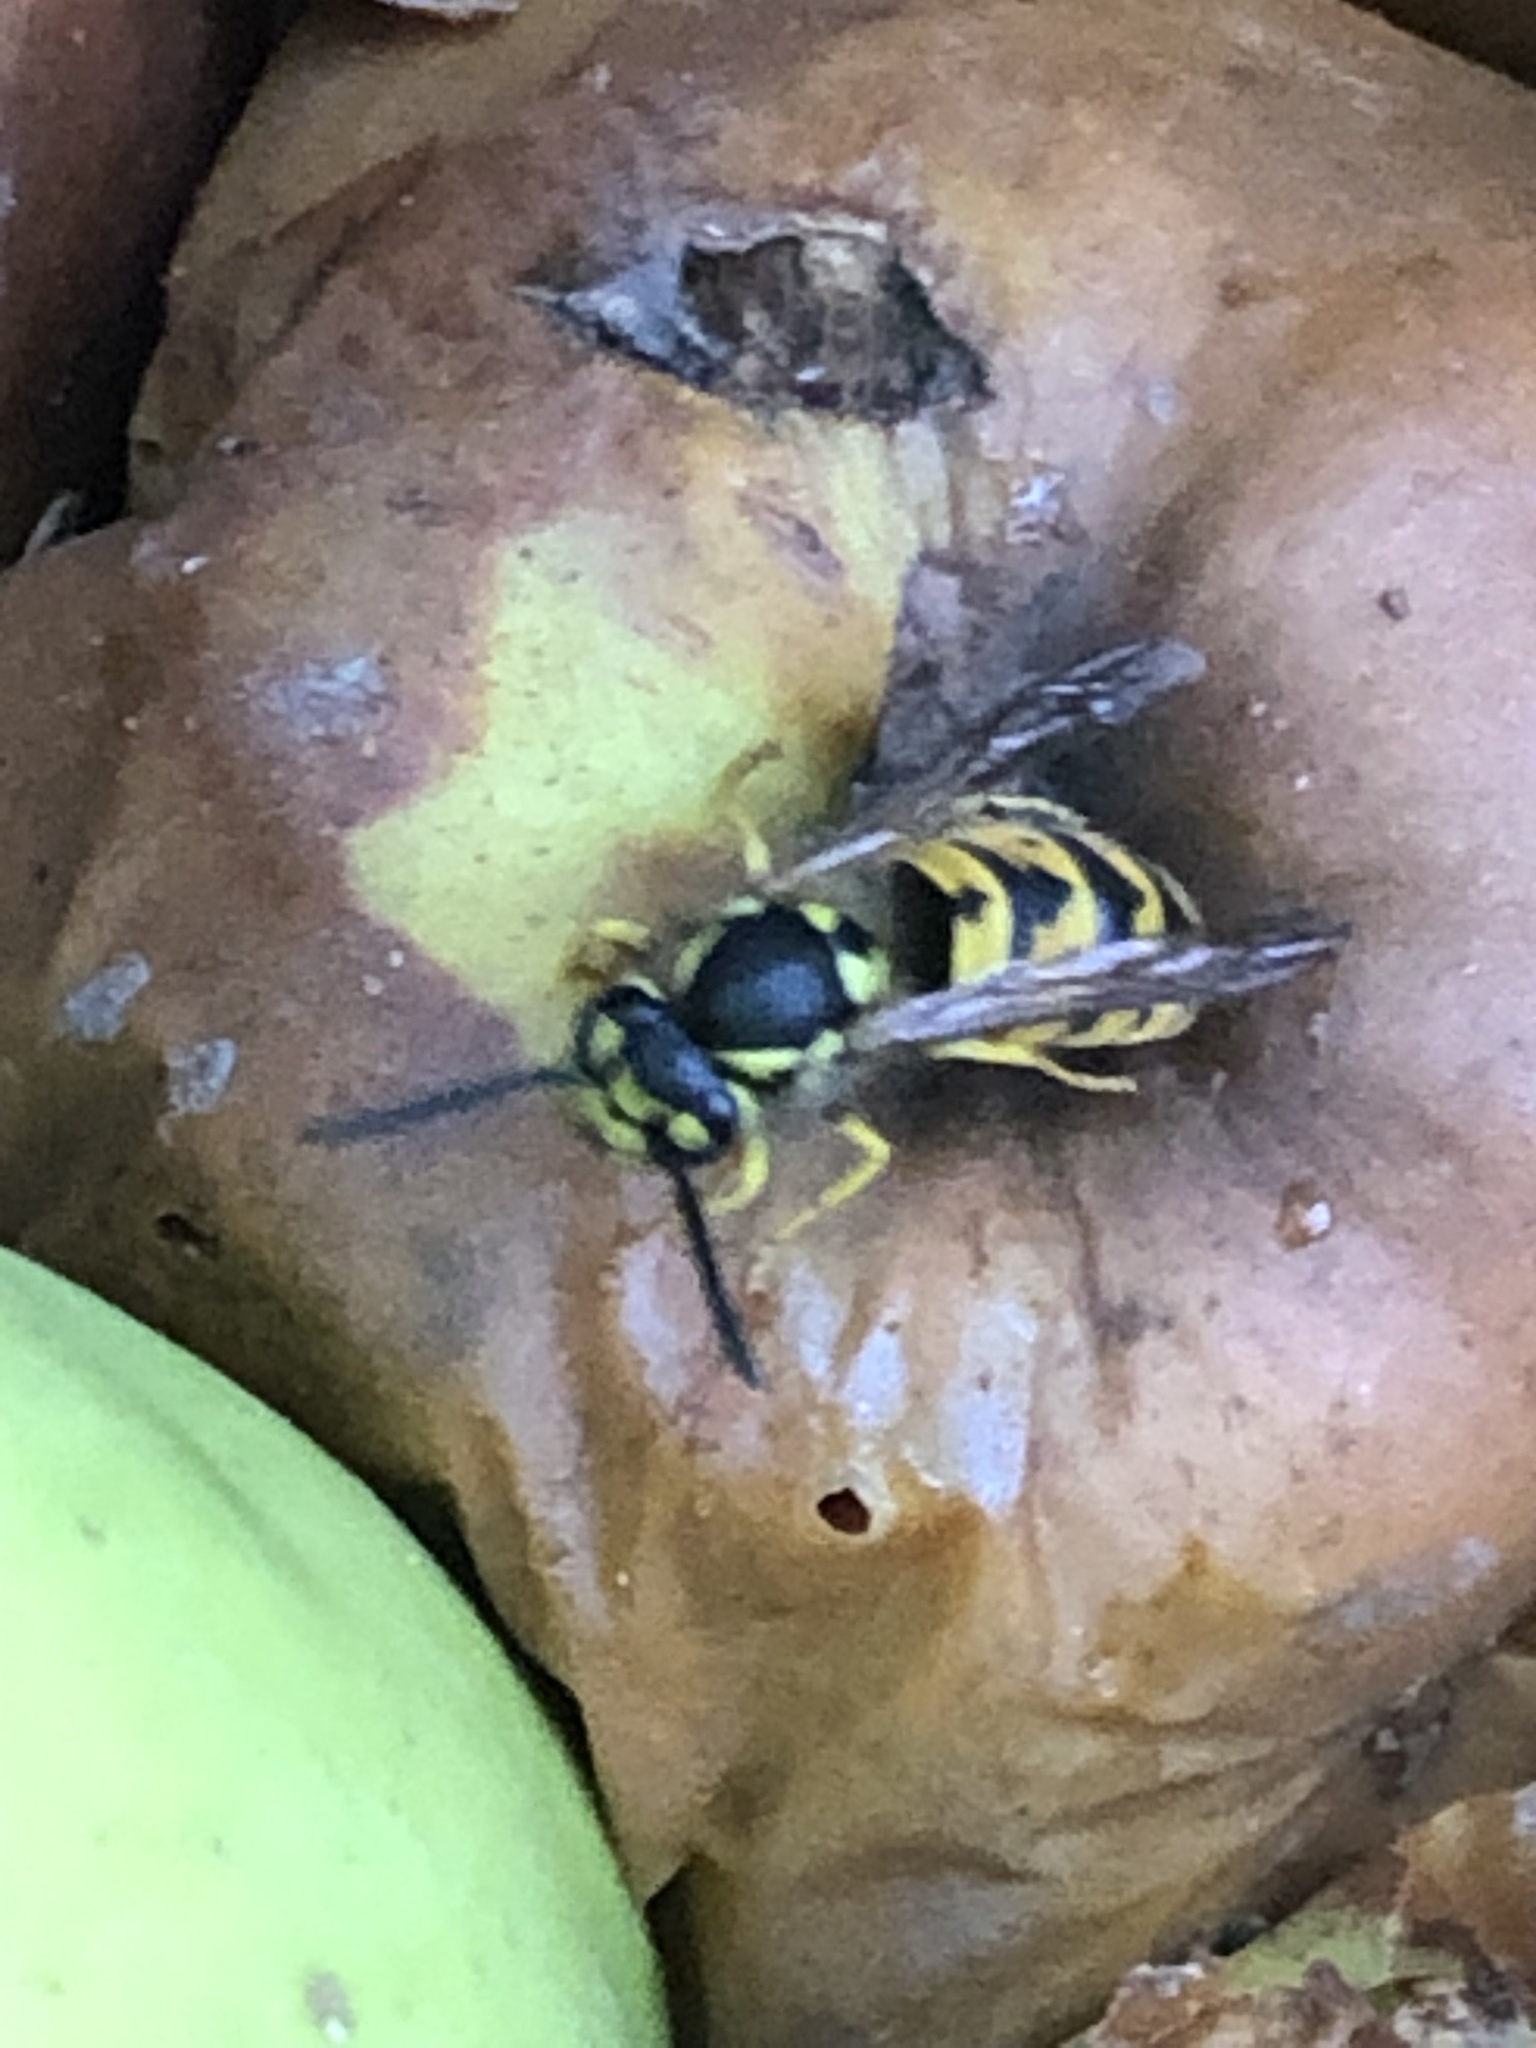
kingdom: Animalia
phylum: Arthropoda
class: Insecta
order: Hymenoptera
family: Vespidae
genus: Vespula
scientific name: Vespula germanica
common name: German wasp
